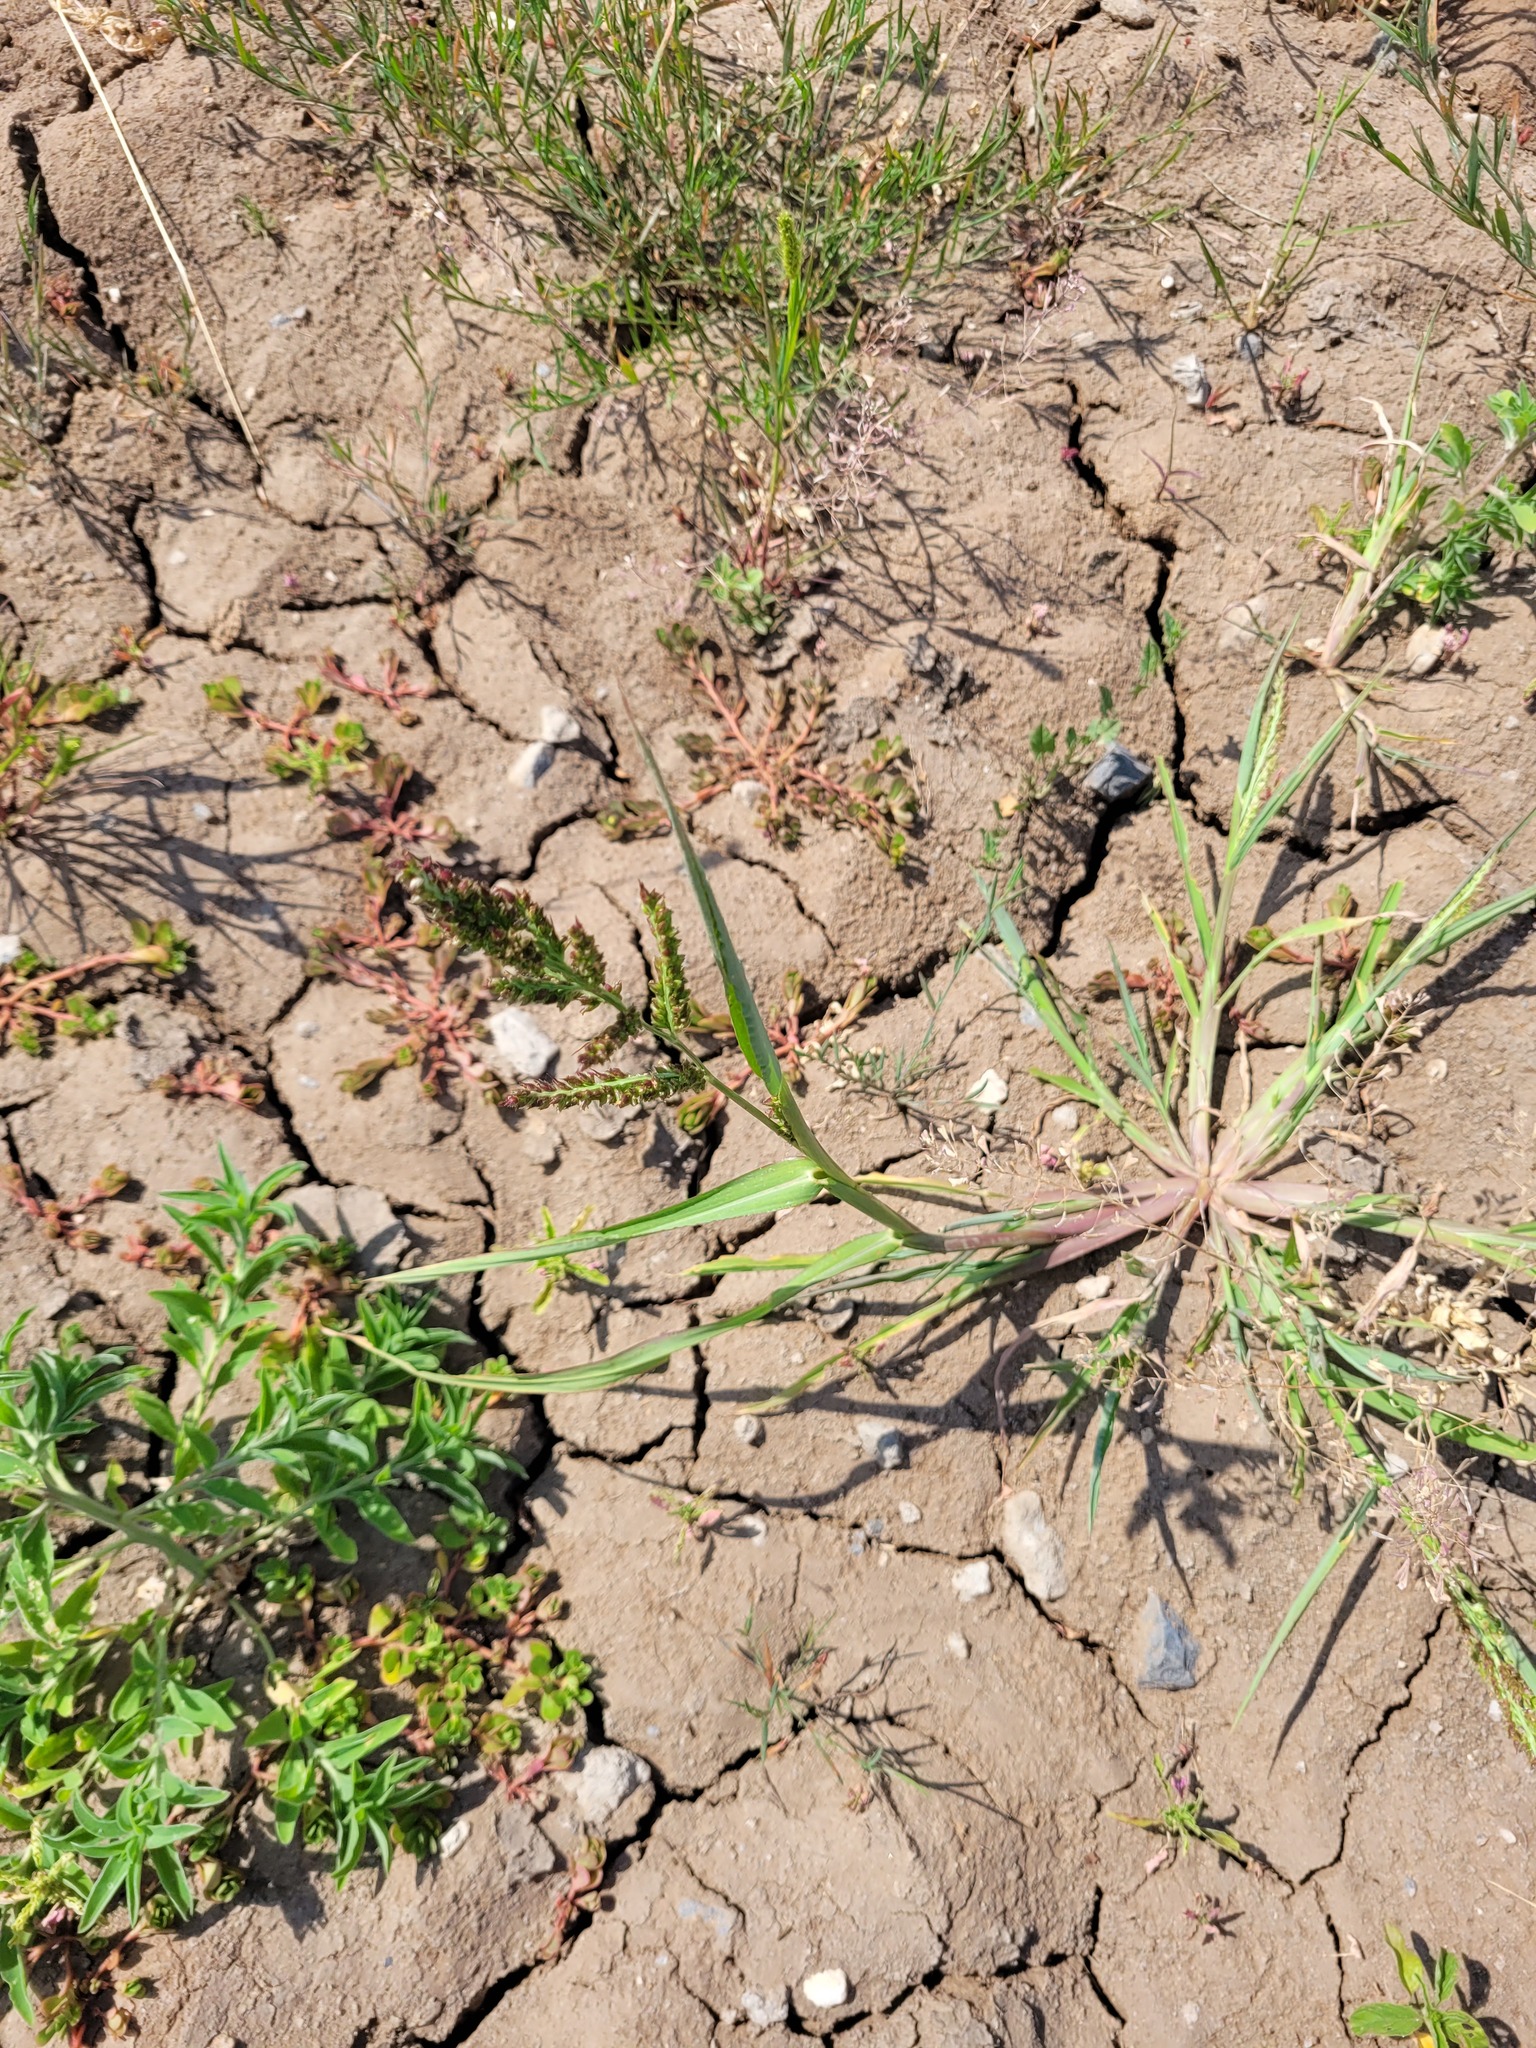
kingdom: Plantae
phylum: Tracheophyta
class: Liliopsida
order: Poales
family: Poaceae
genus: Echinochloa
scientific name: Echinochloa crus-galli
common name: Cockspur
